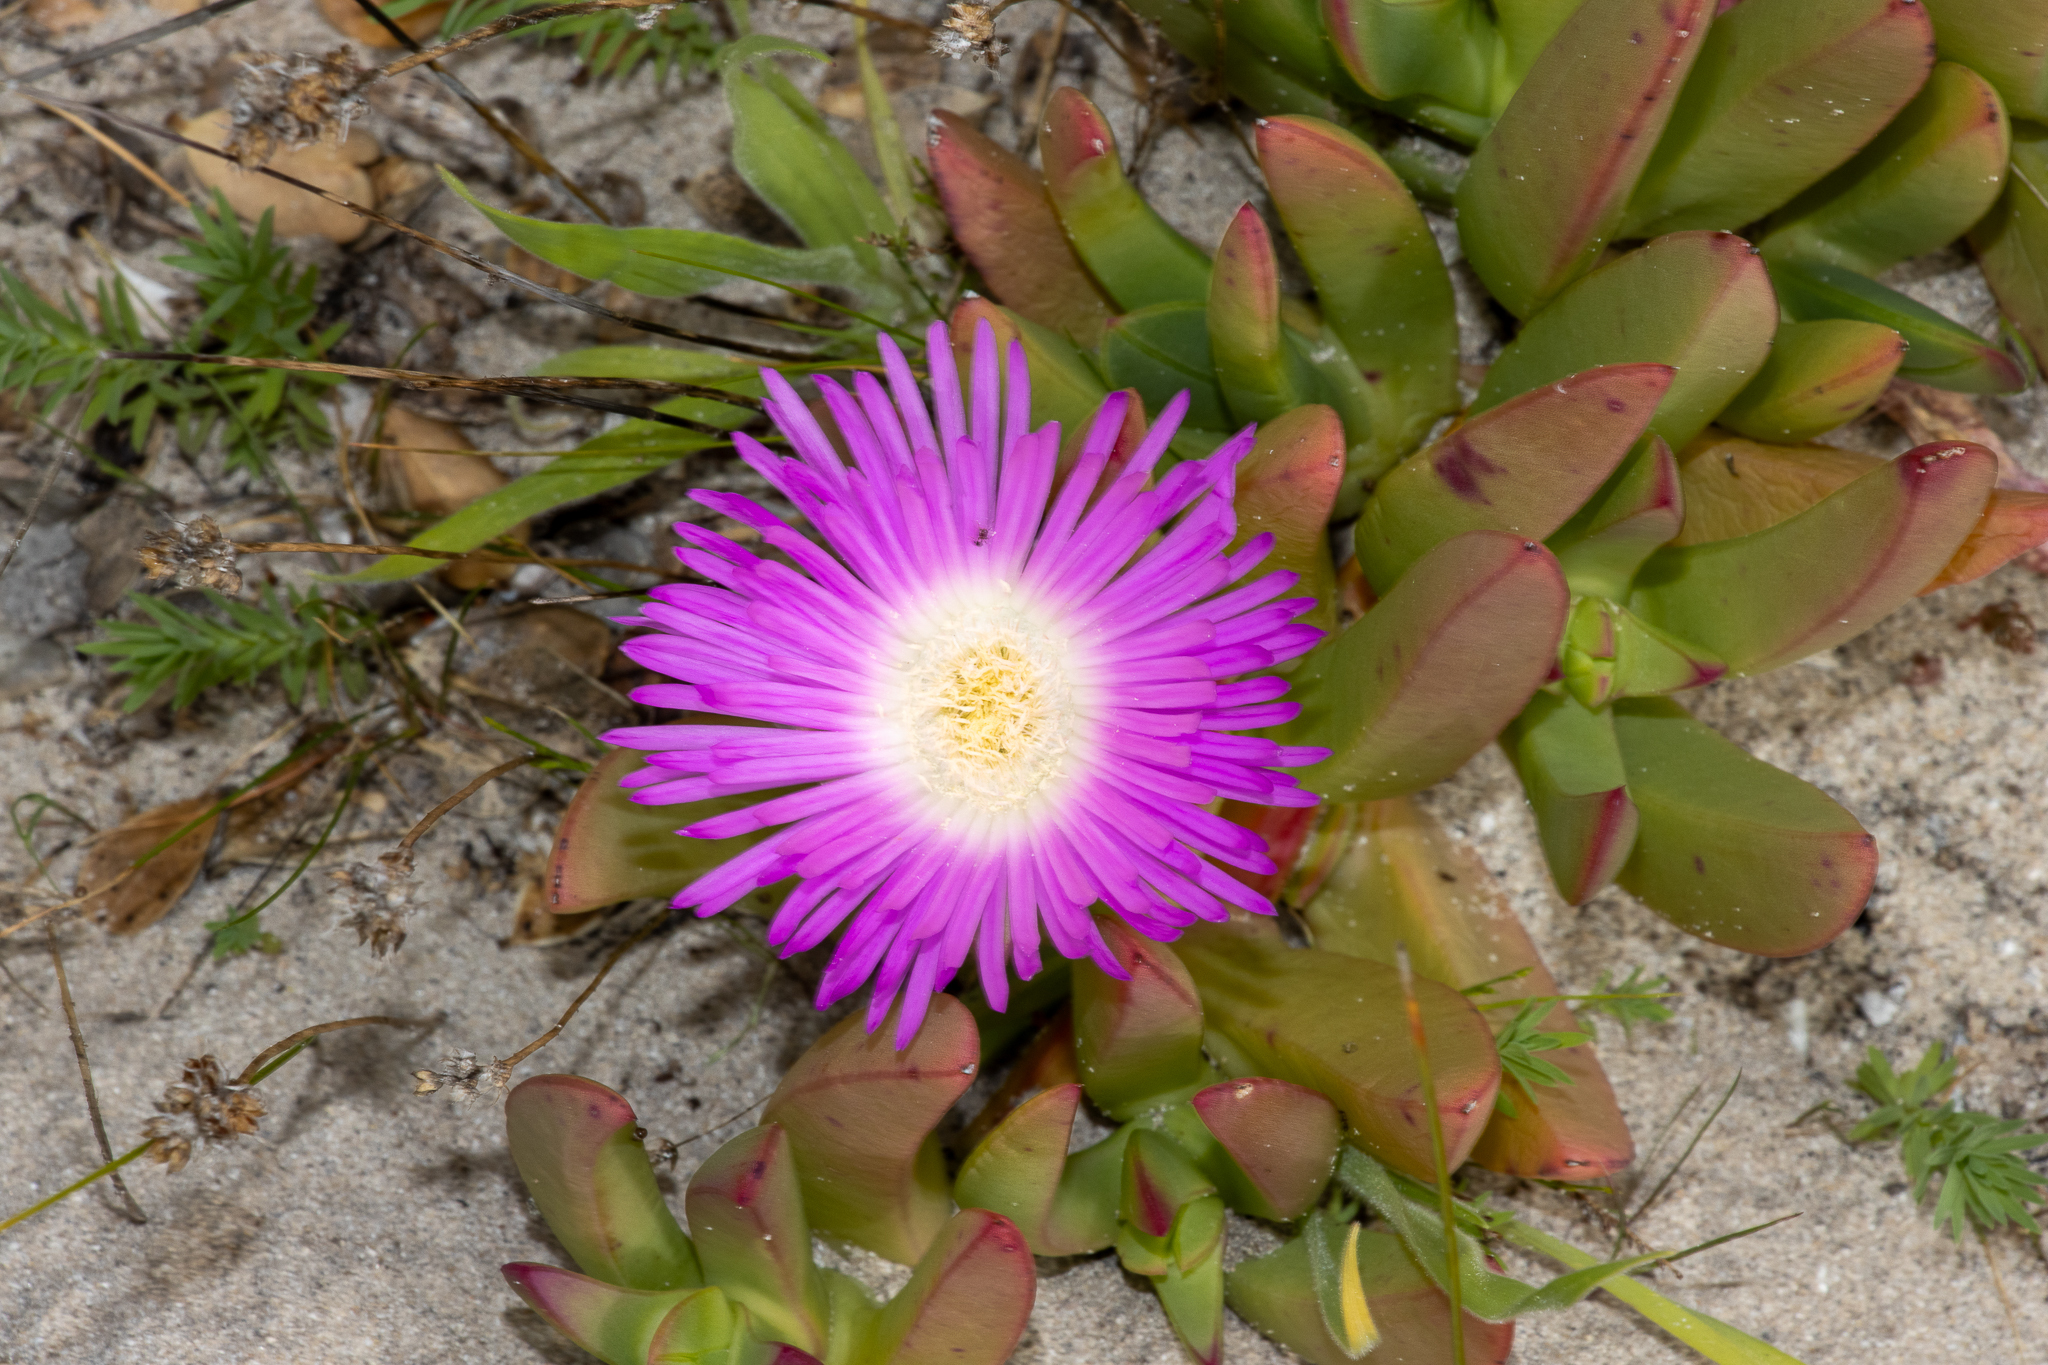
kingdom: Plantae
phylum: Tracheophyta
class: Magnoliopsida
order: Caryophyllales
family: Aizoaceae
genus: Carpobrotus
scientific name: Carpobrotus rossii
